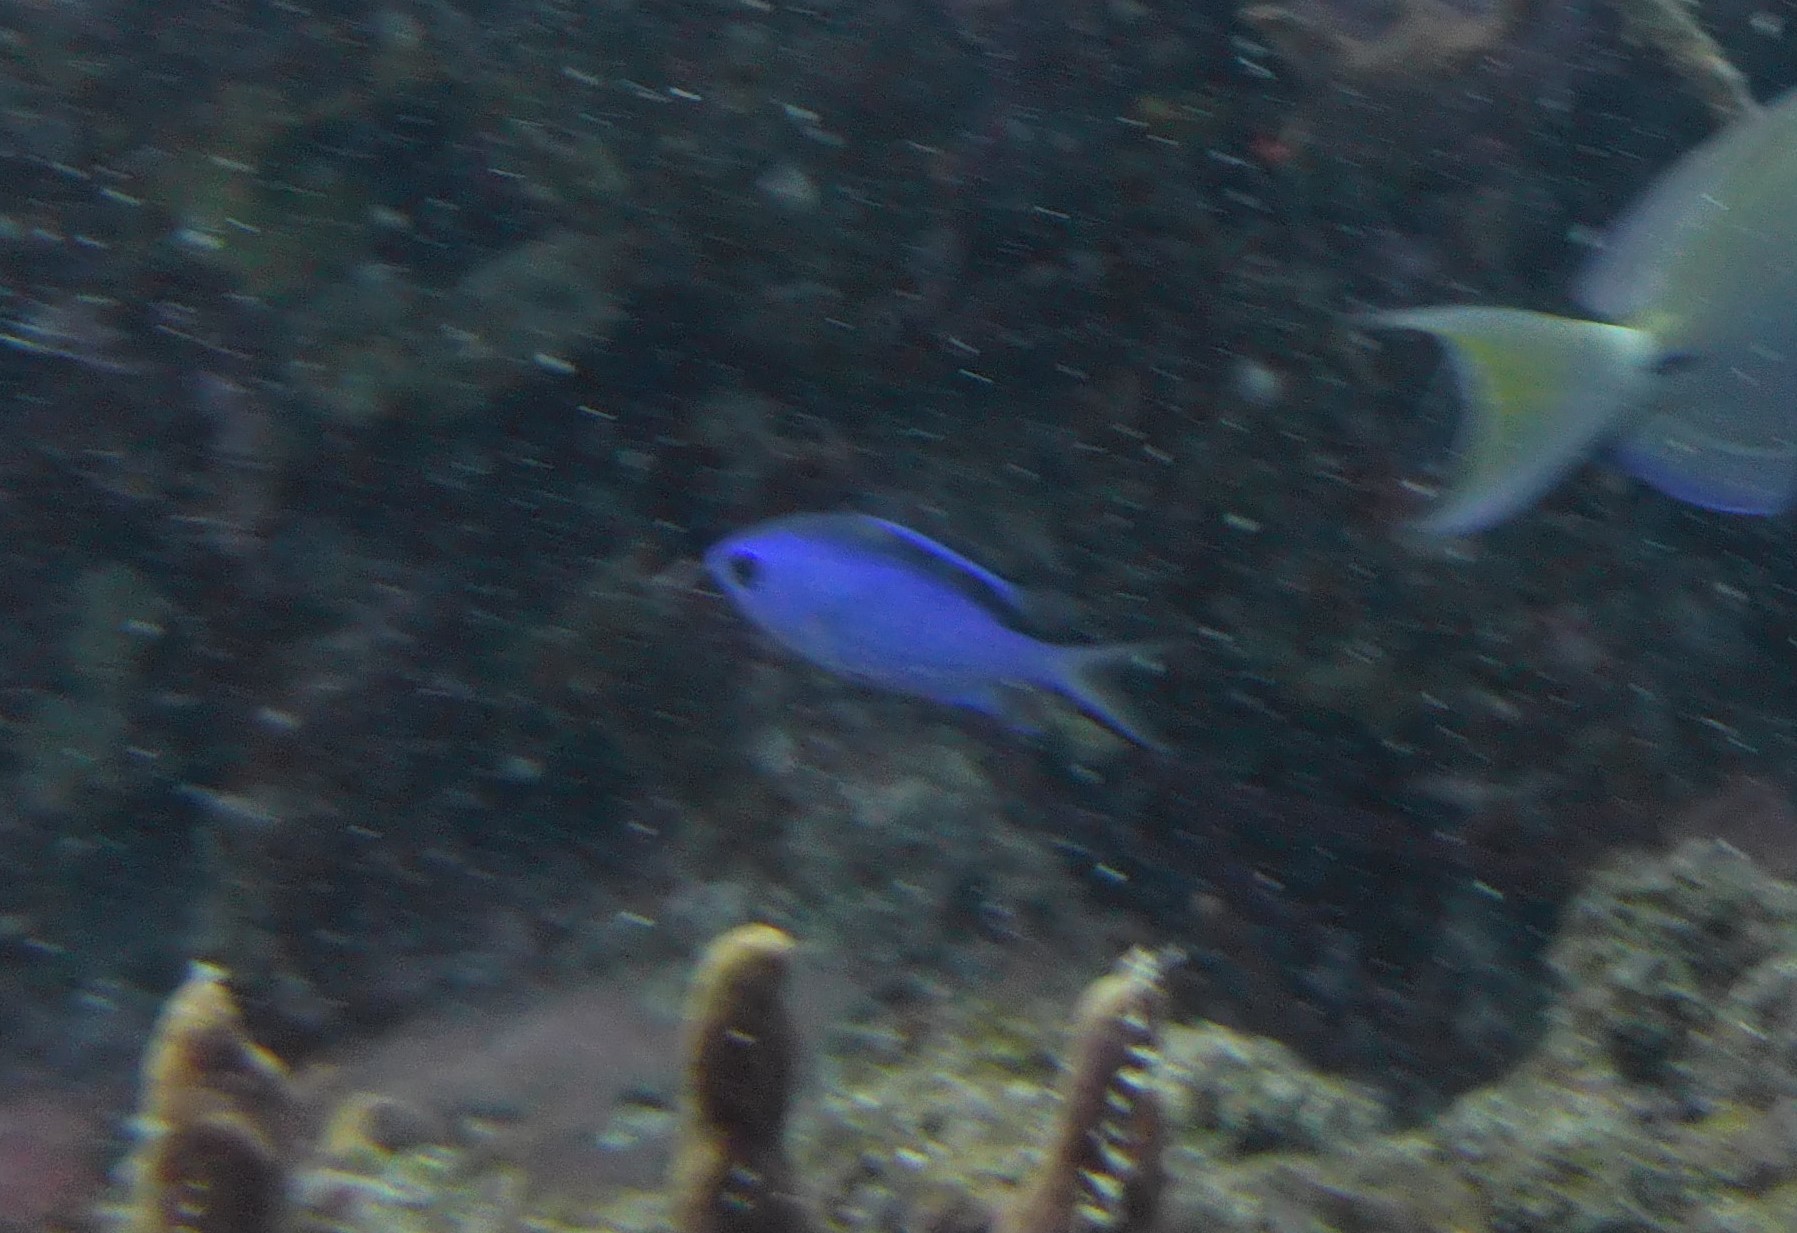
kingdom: Animalia
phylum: Chordata
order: Perciformes
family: Pomacentridae
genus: Chromis
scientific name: Chromis cyanea
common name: Blue chromis
